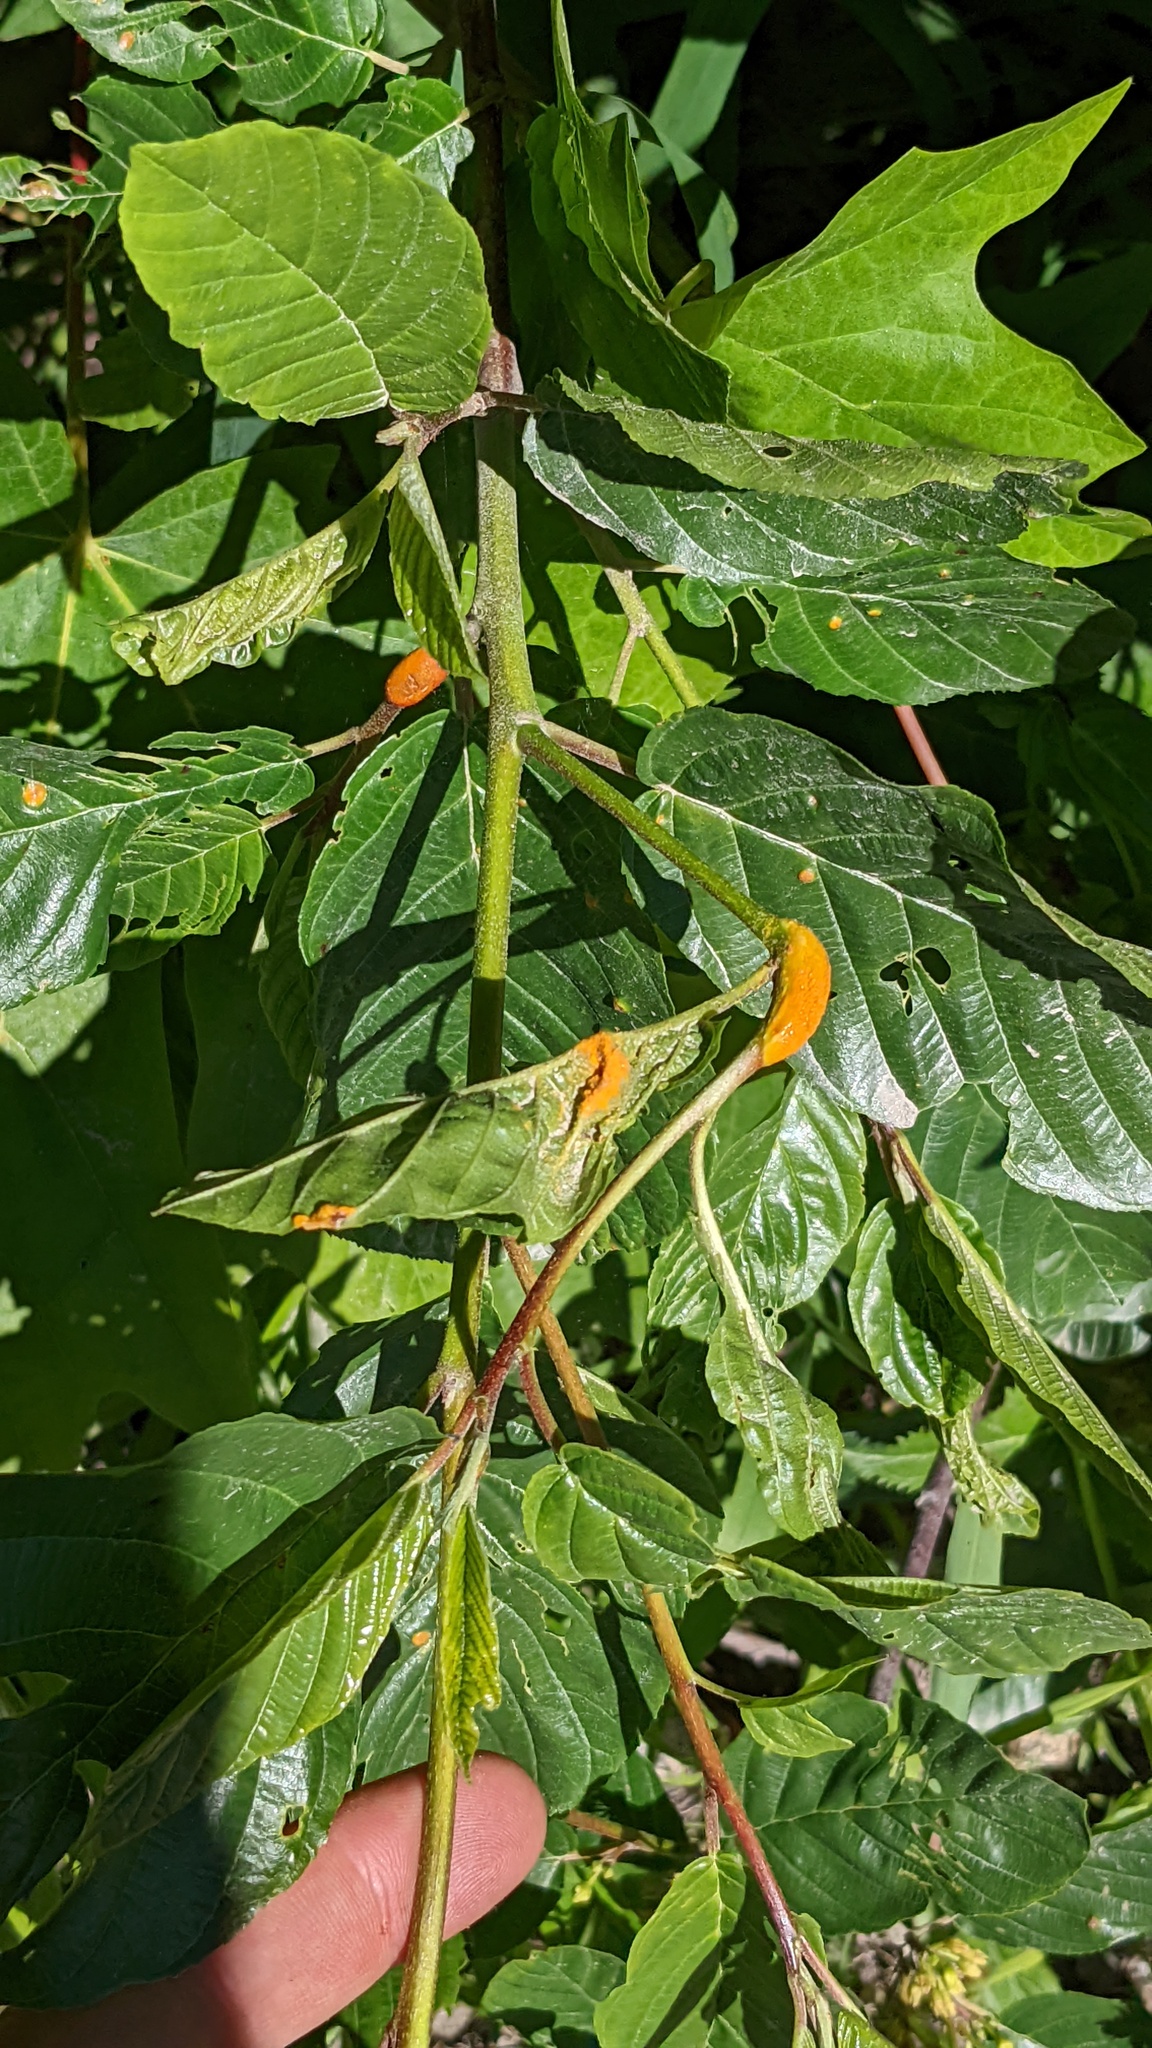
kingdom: Fungi
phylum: Basidiomycota
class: Pucciniomycetes
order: Pucciniales
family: Pucciniaceae
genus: Puccinia
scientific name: Puccinia coronata
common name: Crown rust
